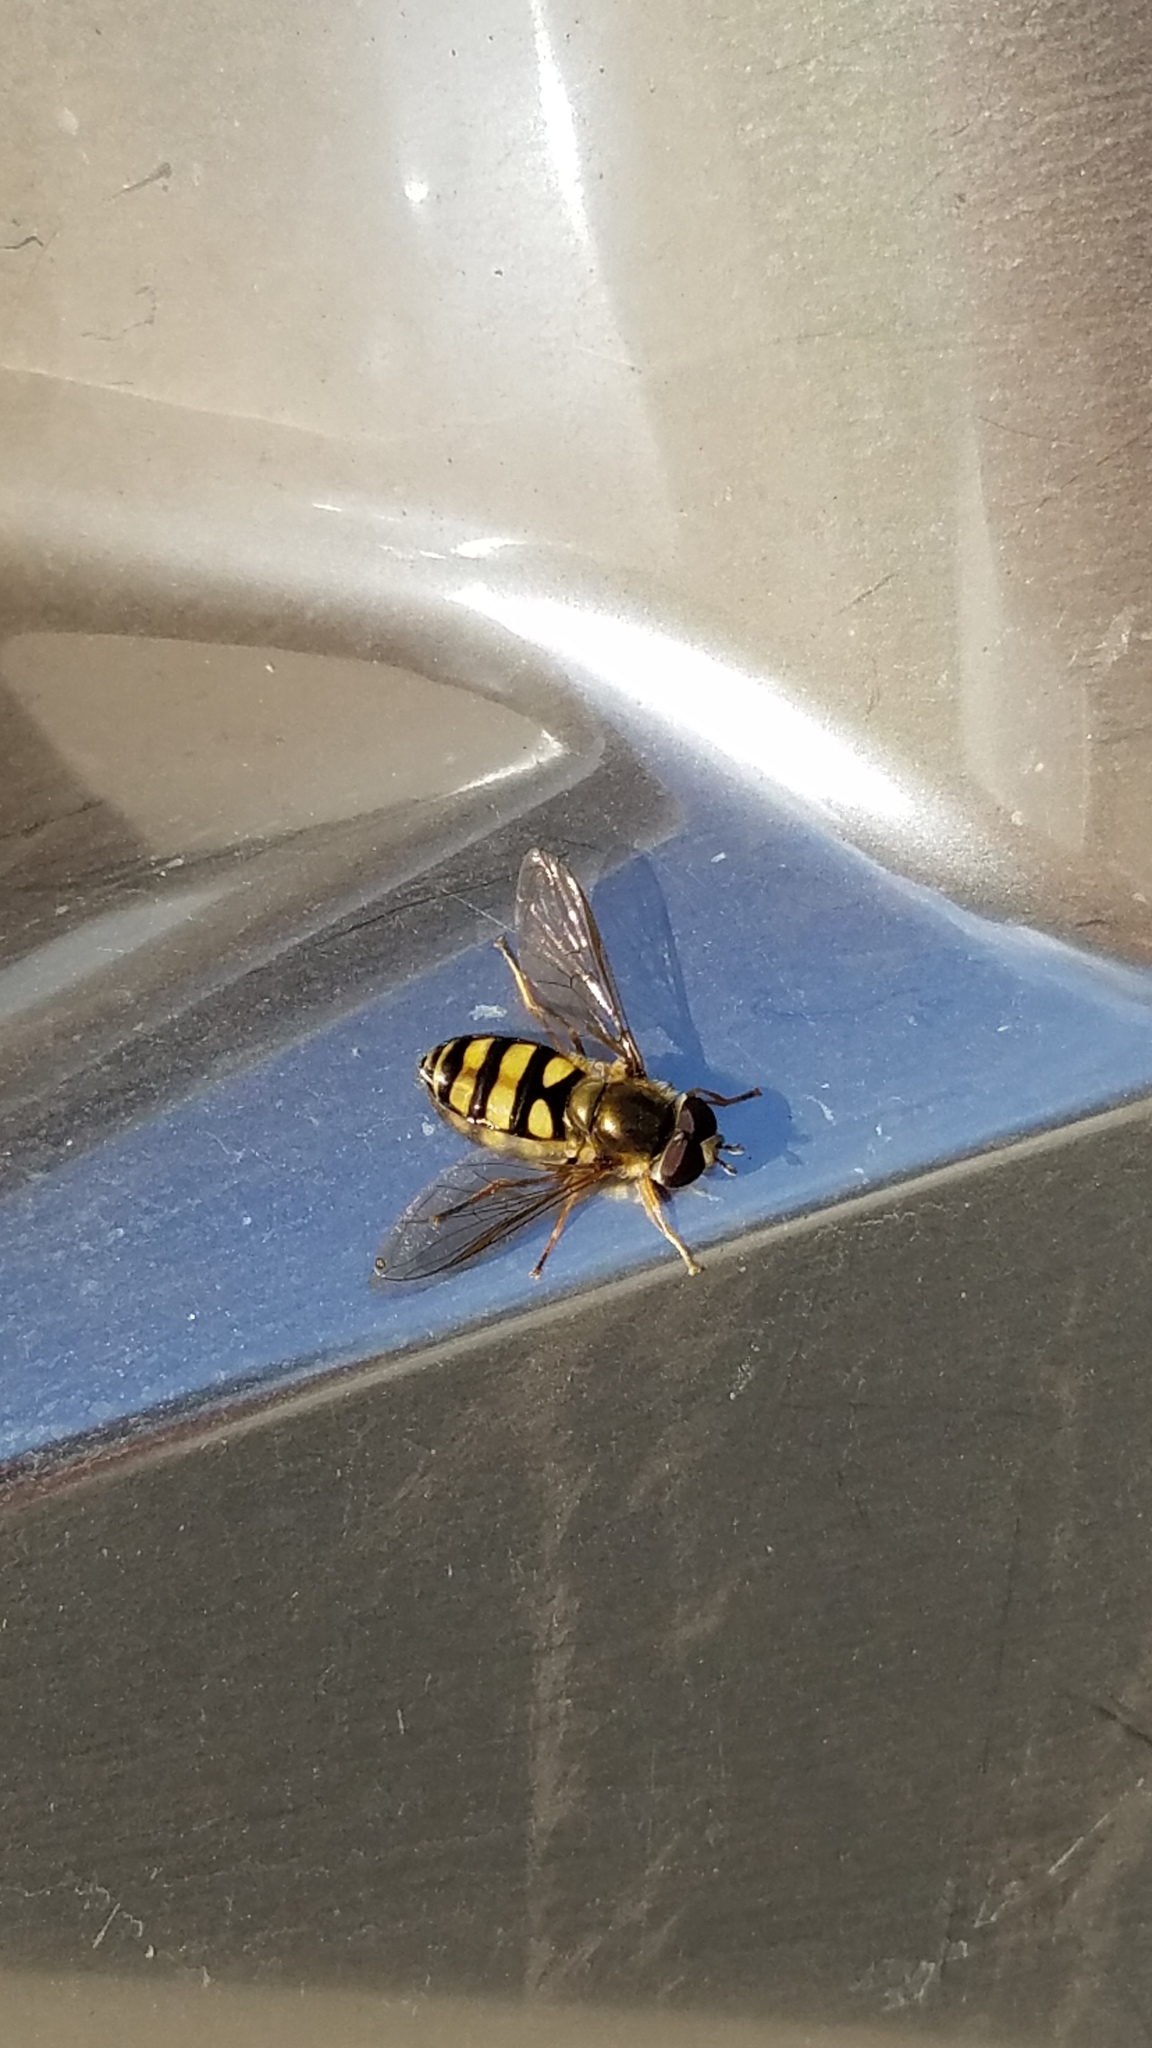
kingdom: Animalia
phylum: Arthropoda
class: Insecta
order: Diptera
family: Syrphidae
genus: Eupeodes
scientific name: Eupeodes
